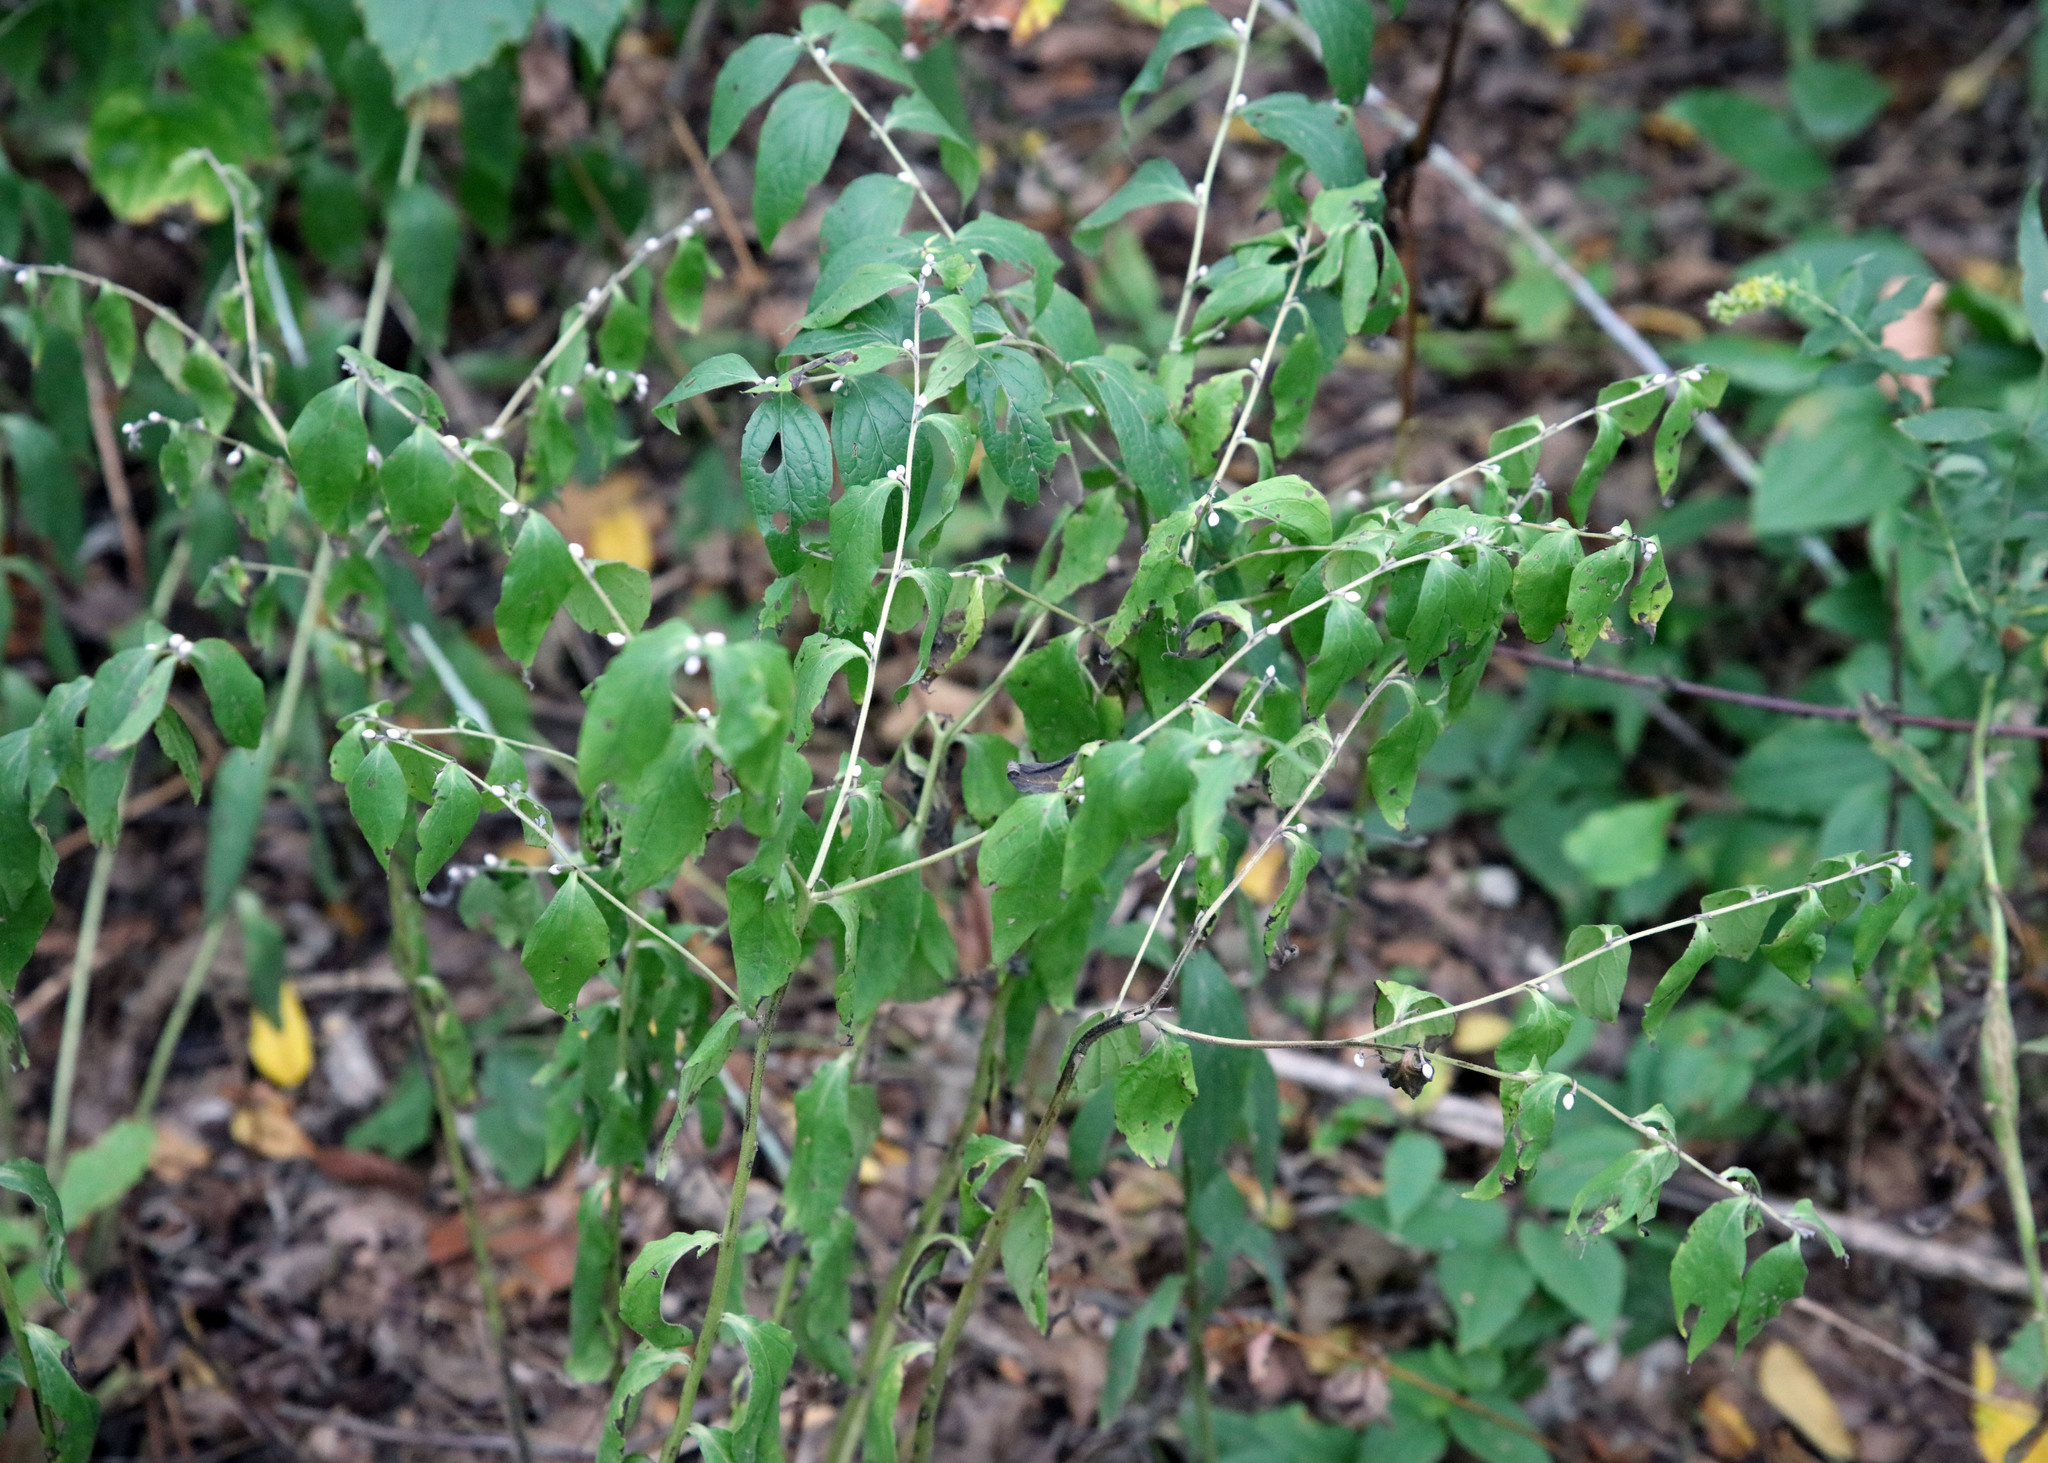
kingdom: Plantae
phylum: Tracheophyta
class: Magnoliopsida
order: Boraginales
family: Boraginaceae
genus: Lithospermum
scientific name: Lithospermum latifolium
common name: American gromwell
